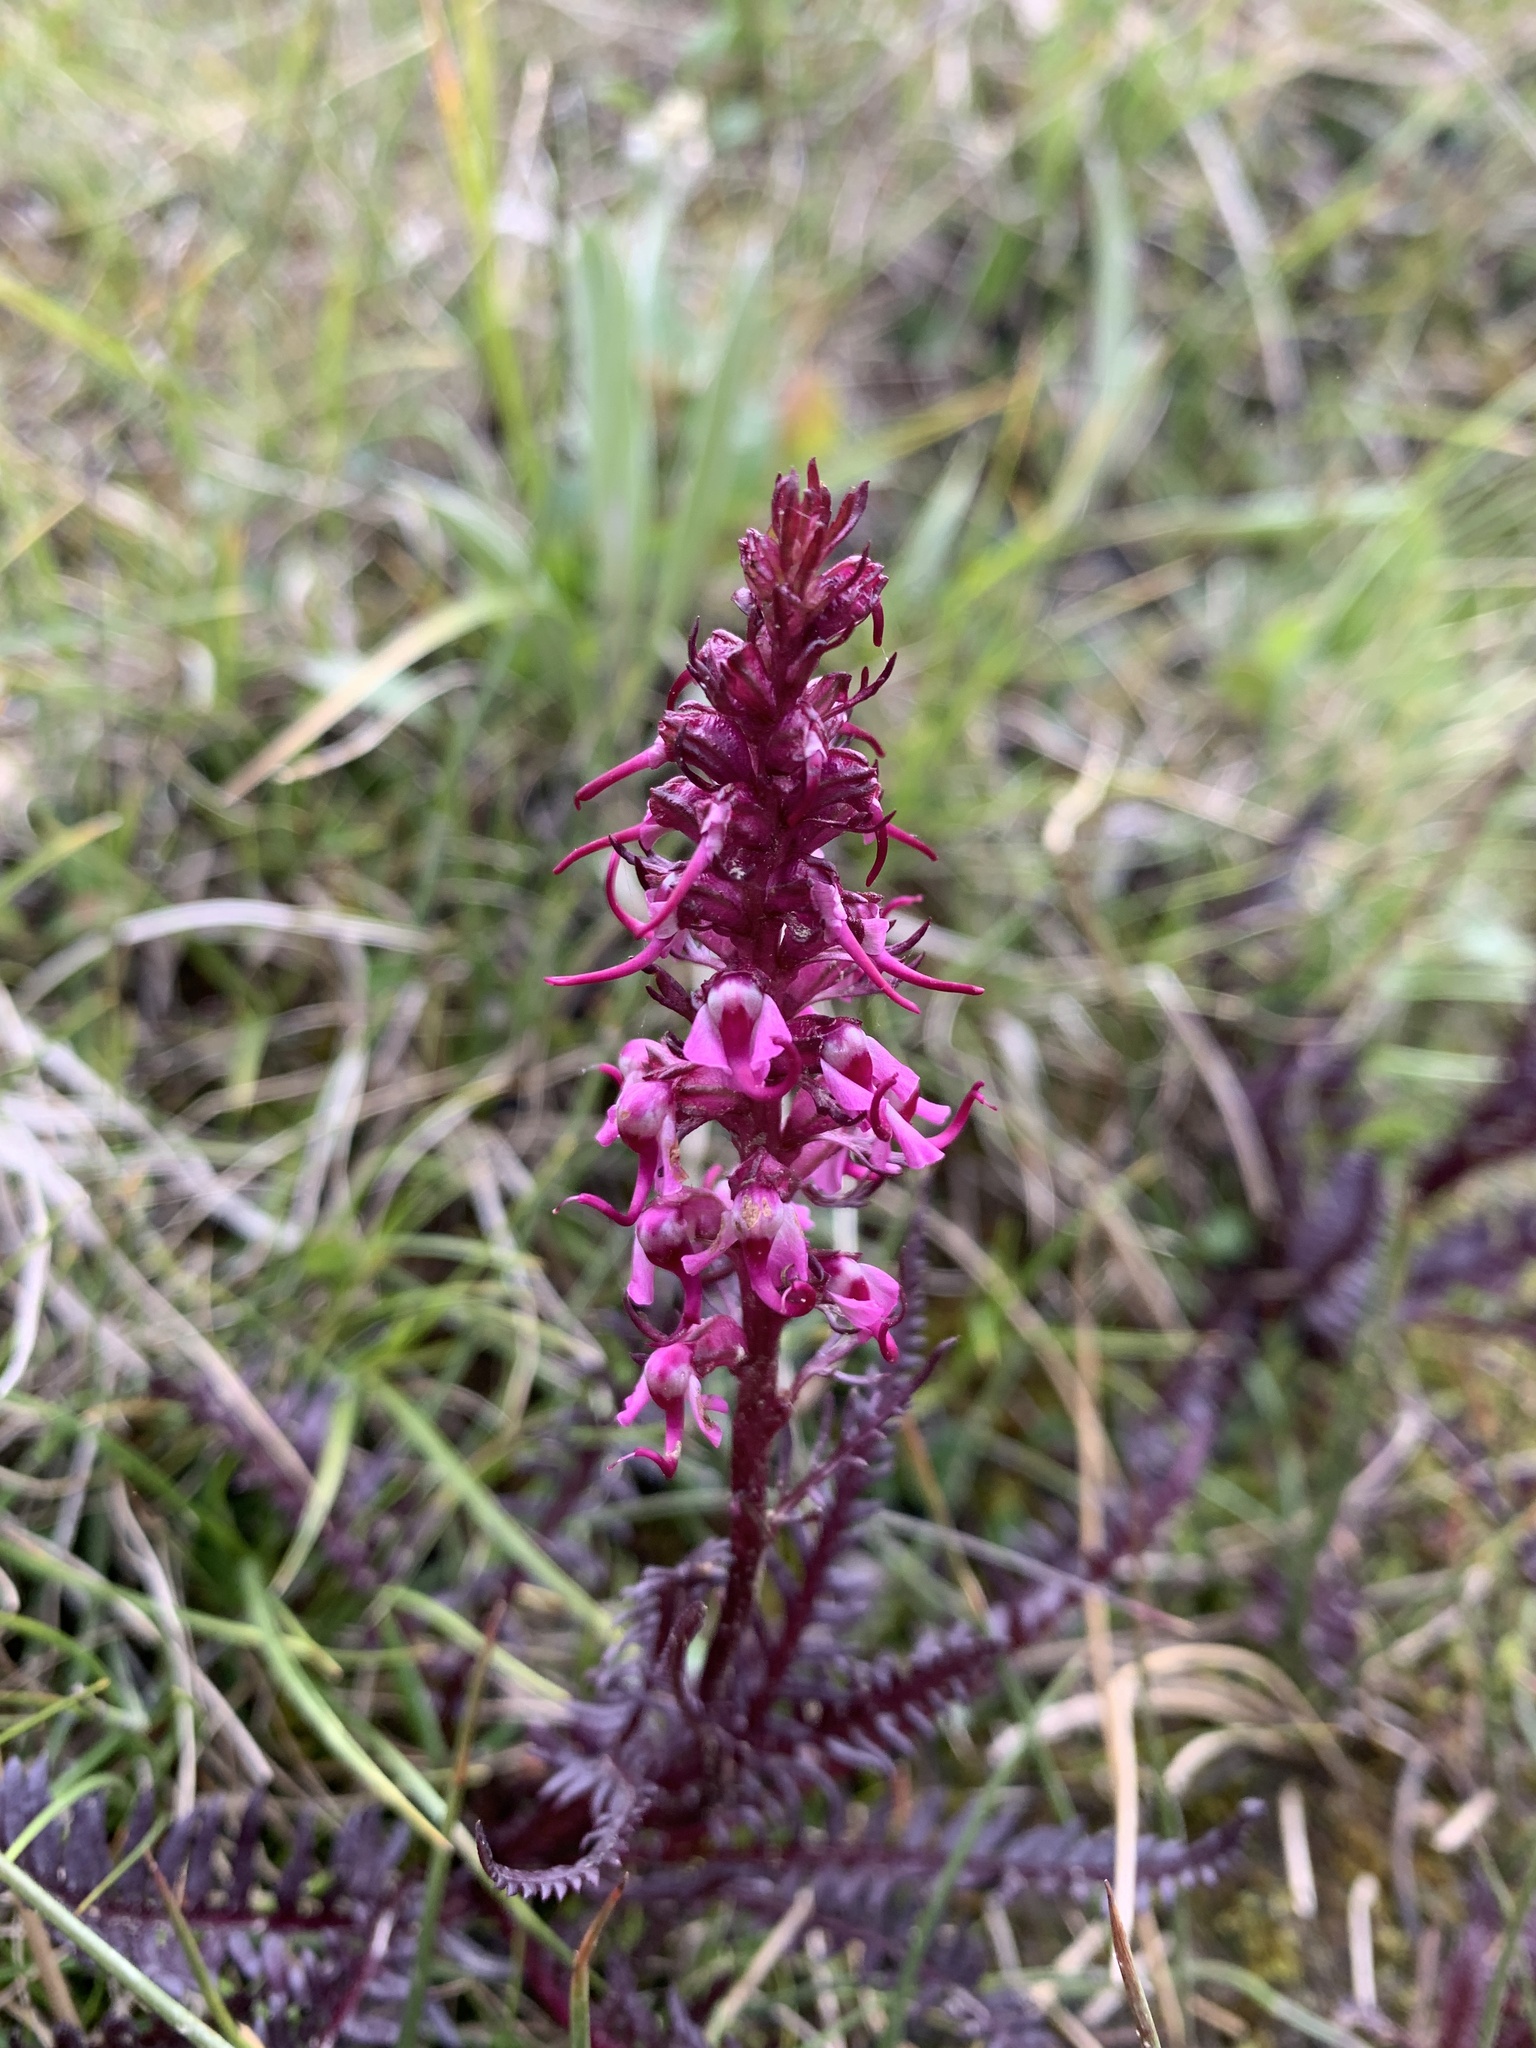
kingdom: Plantae
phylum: Tracheophyta
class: Magnoliopsida
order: Lamiales
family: Orobanchaceae
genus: Pedicularis
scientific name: Pedicularis groenlandica
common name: Elephant's-head
